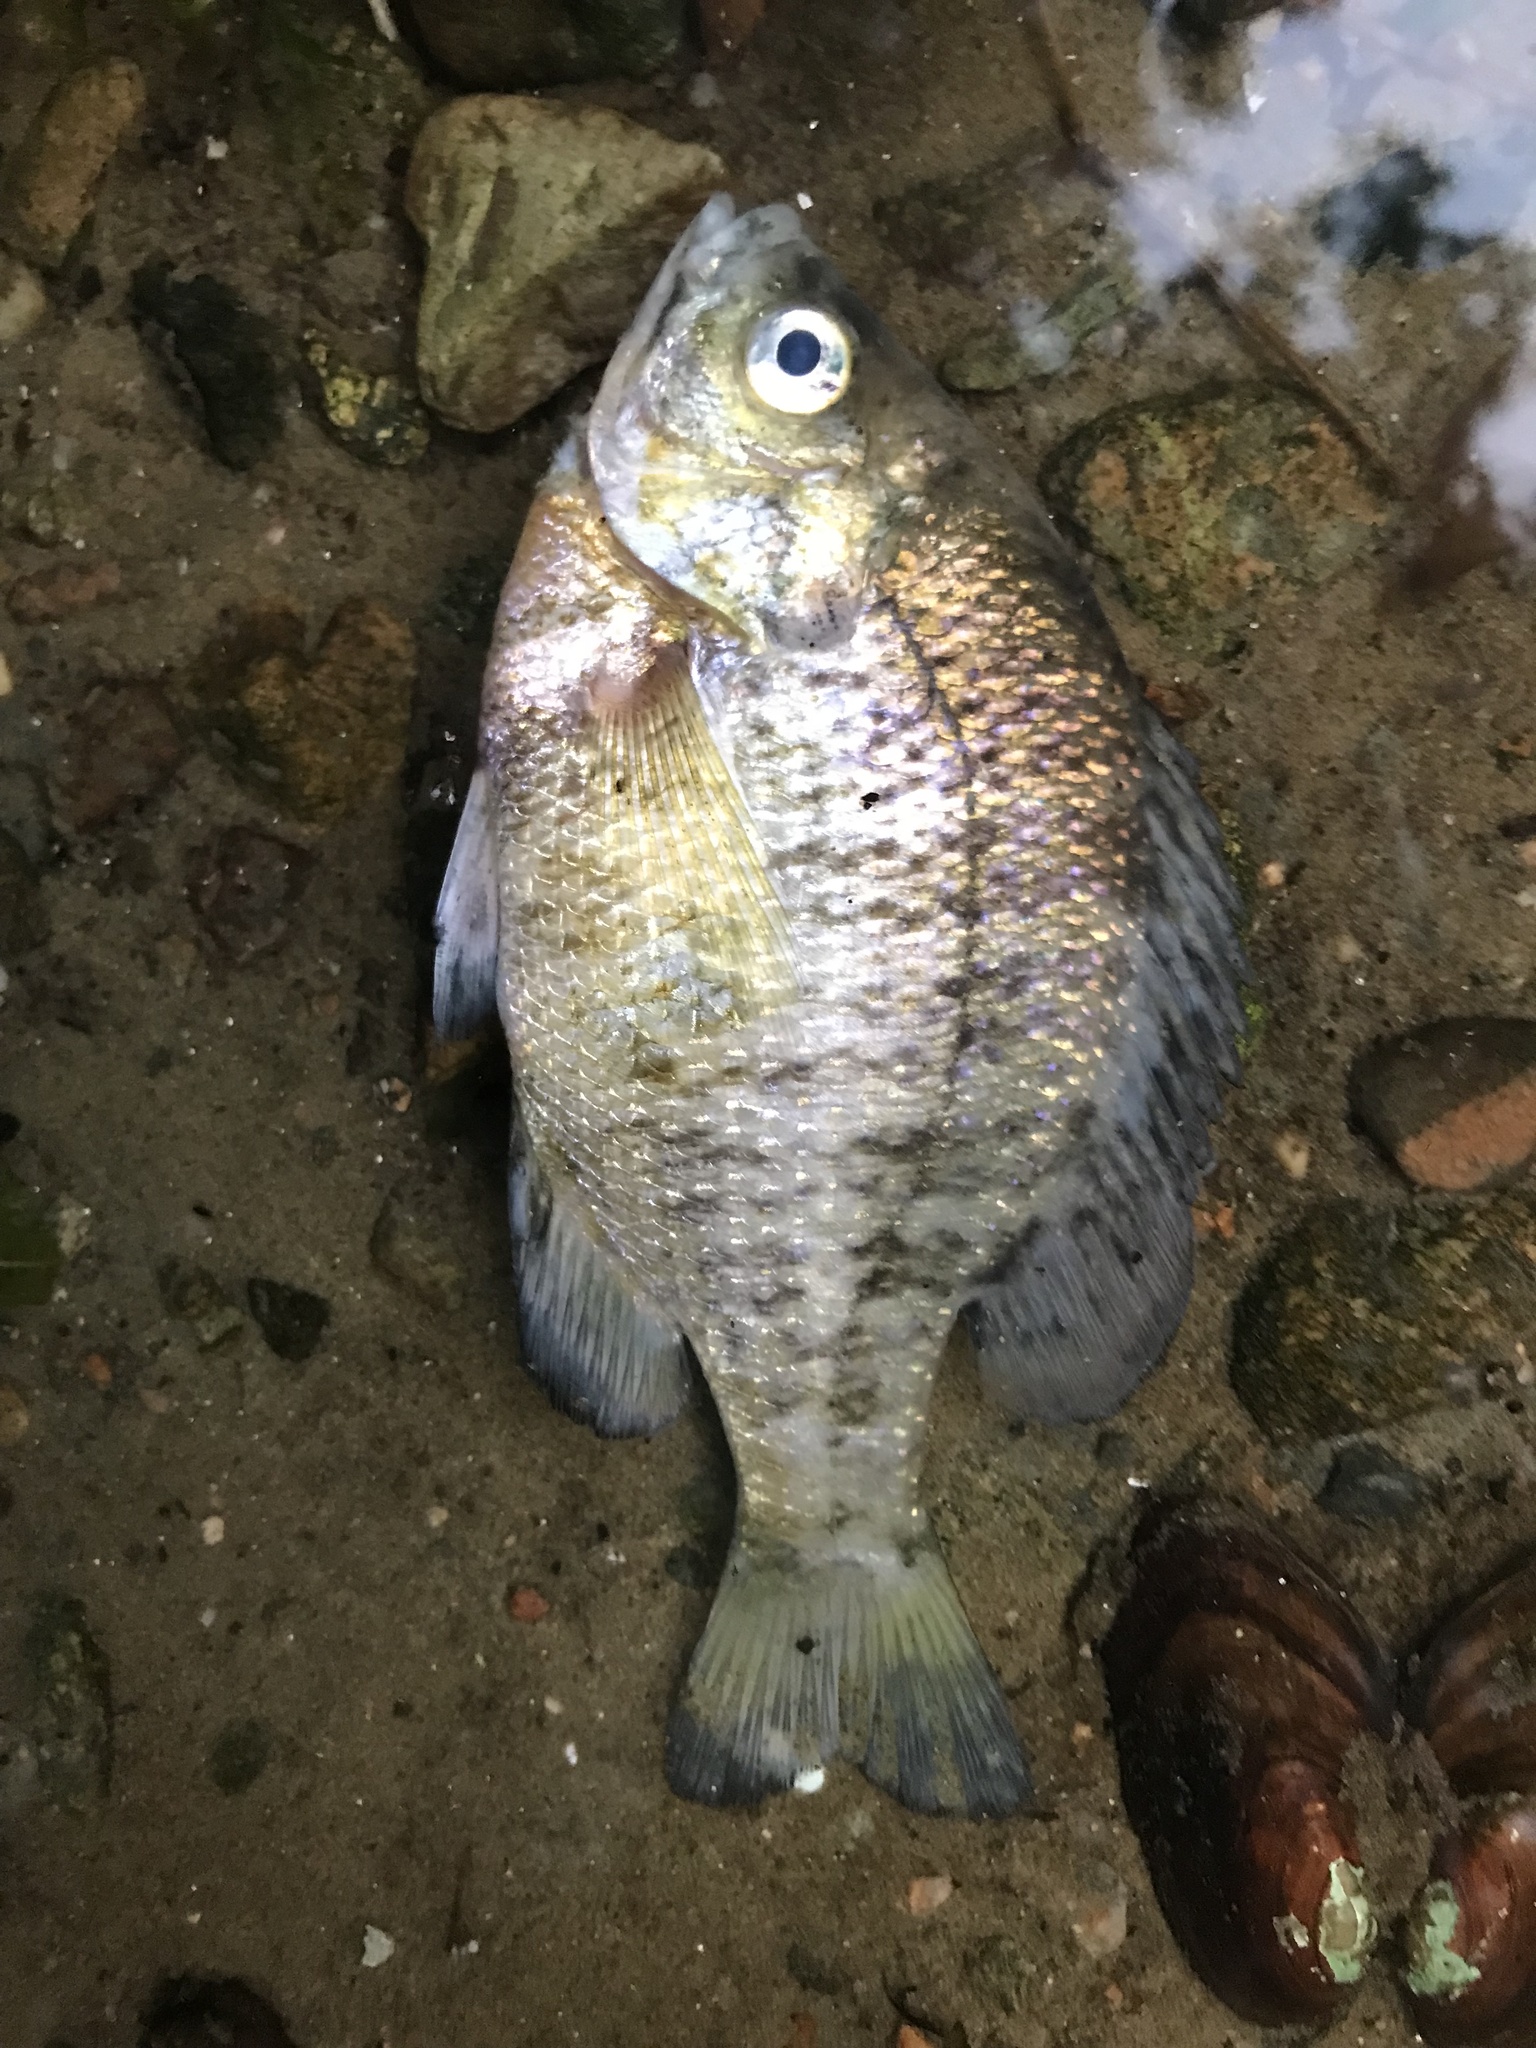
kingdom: Animalia
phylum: Chordata
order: Perciformes
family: Centrarchidae
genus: Lepomis
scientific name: Lepomis macrochirus
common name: Bluegill
